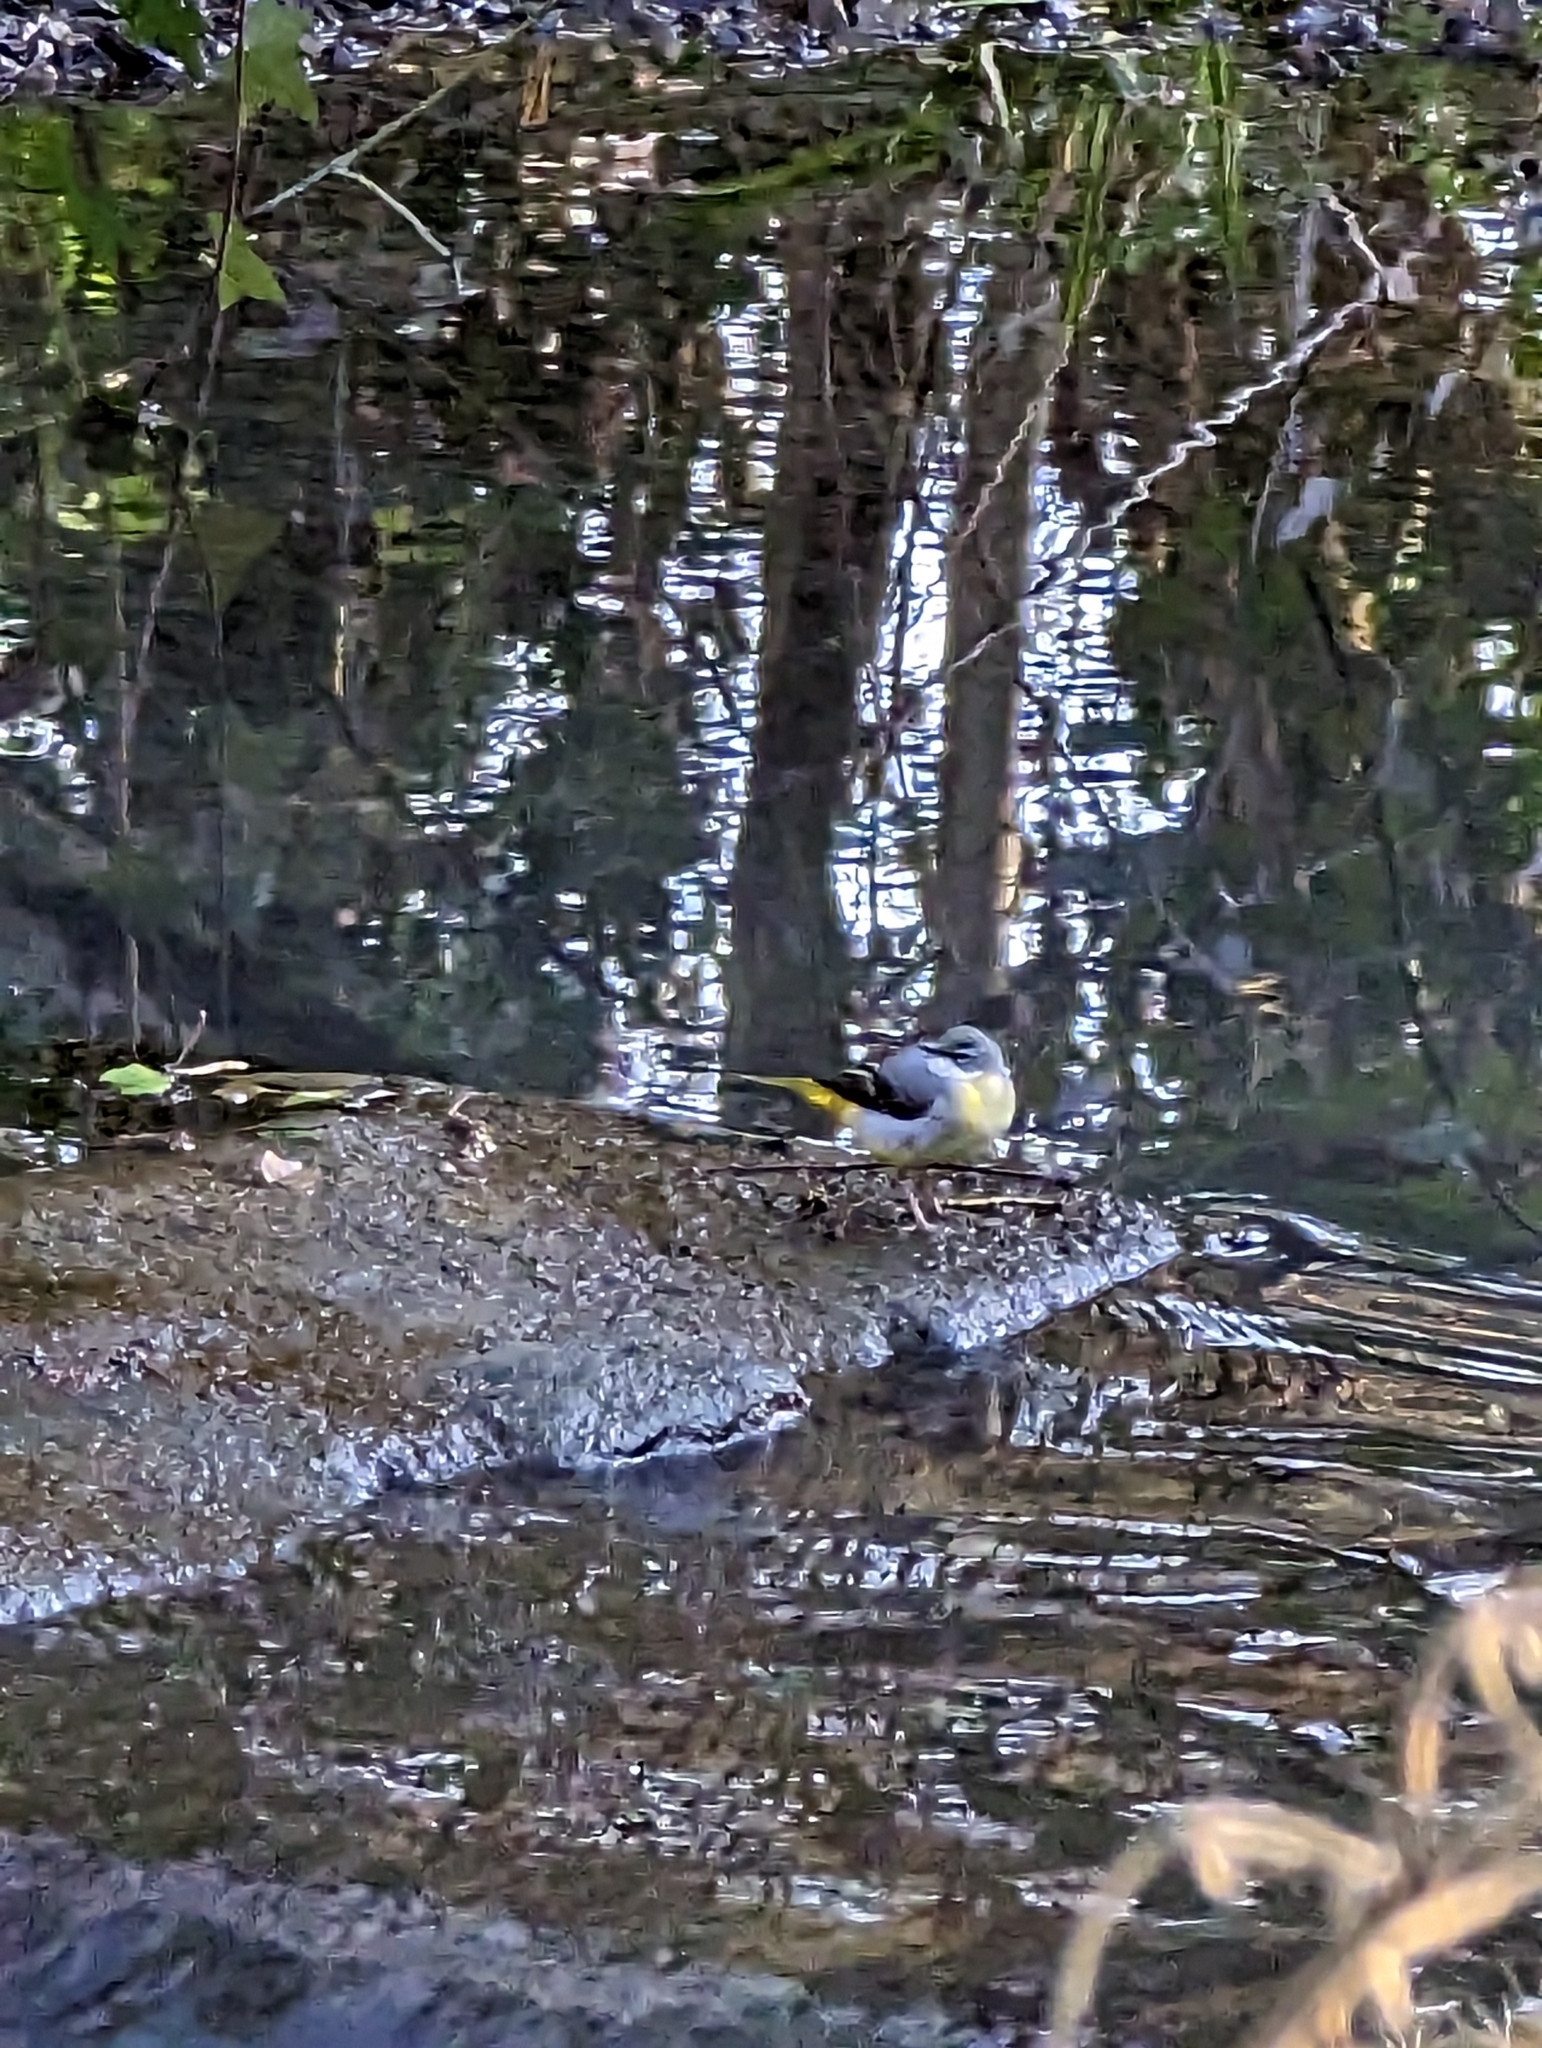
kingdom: Animalia
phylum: Chordata
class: Aves
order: Passeriformes
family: Motacillidae
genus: Motacilla
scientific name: Motacilla cinerea
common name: Grey wagtail
